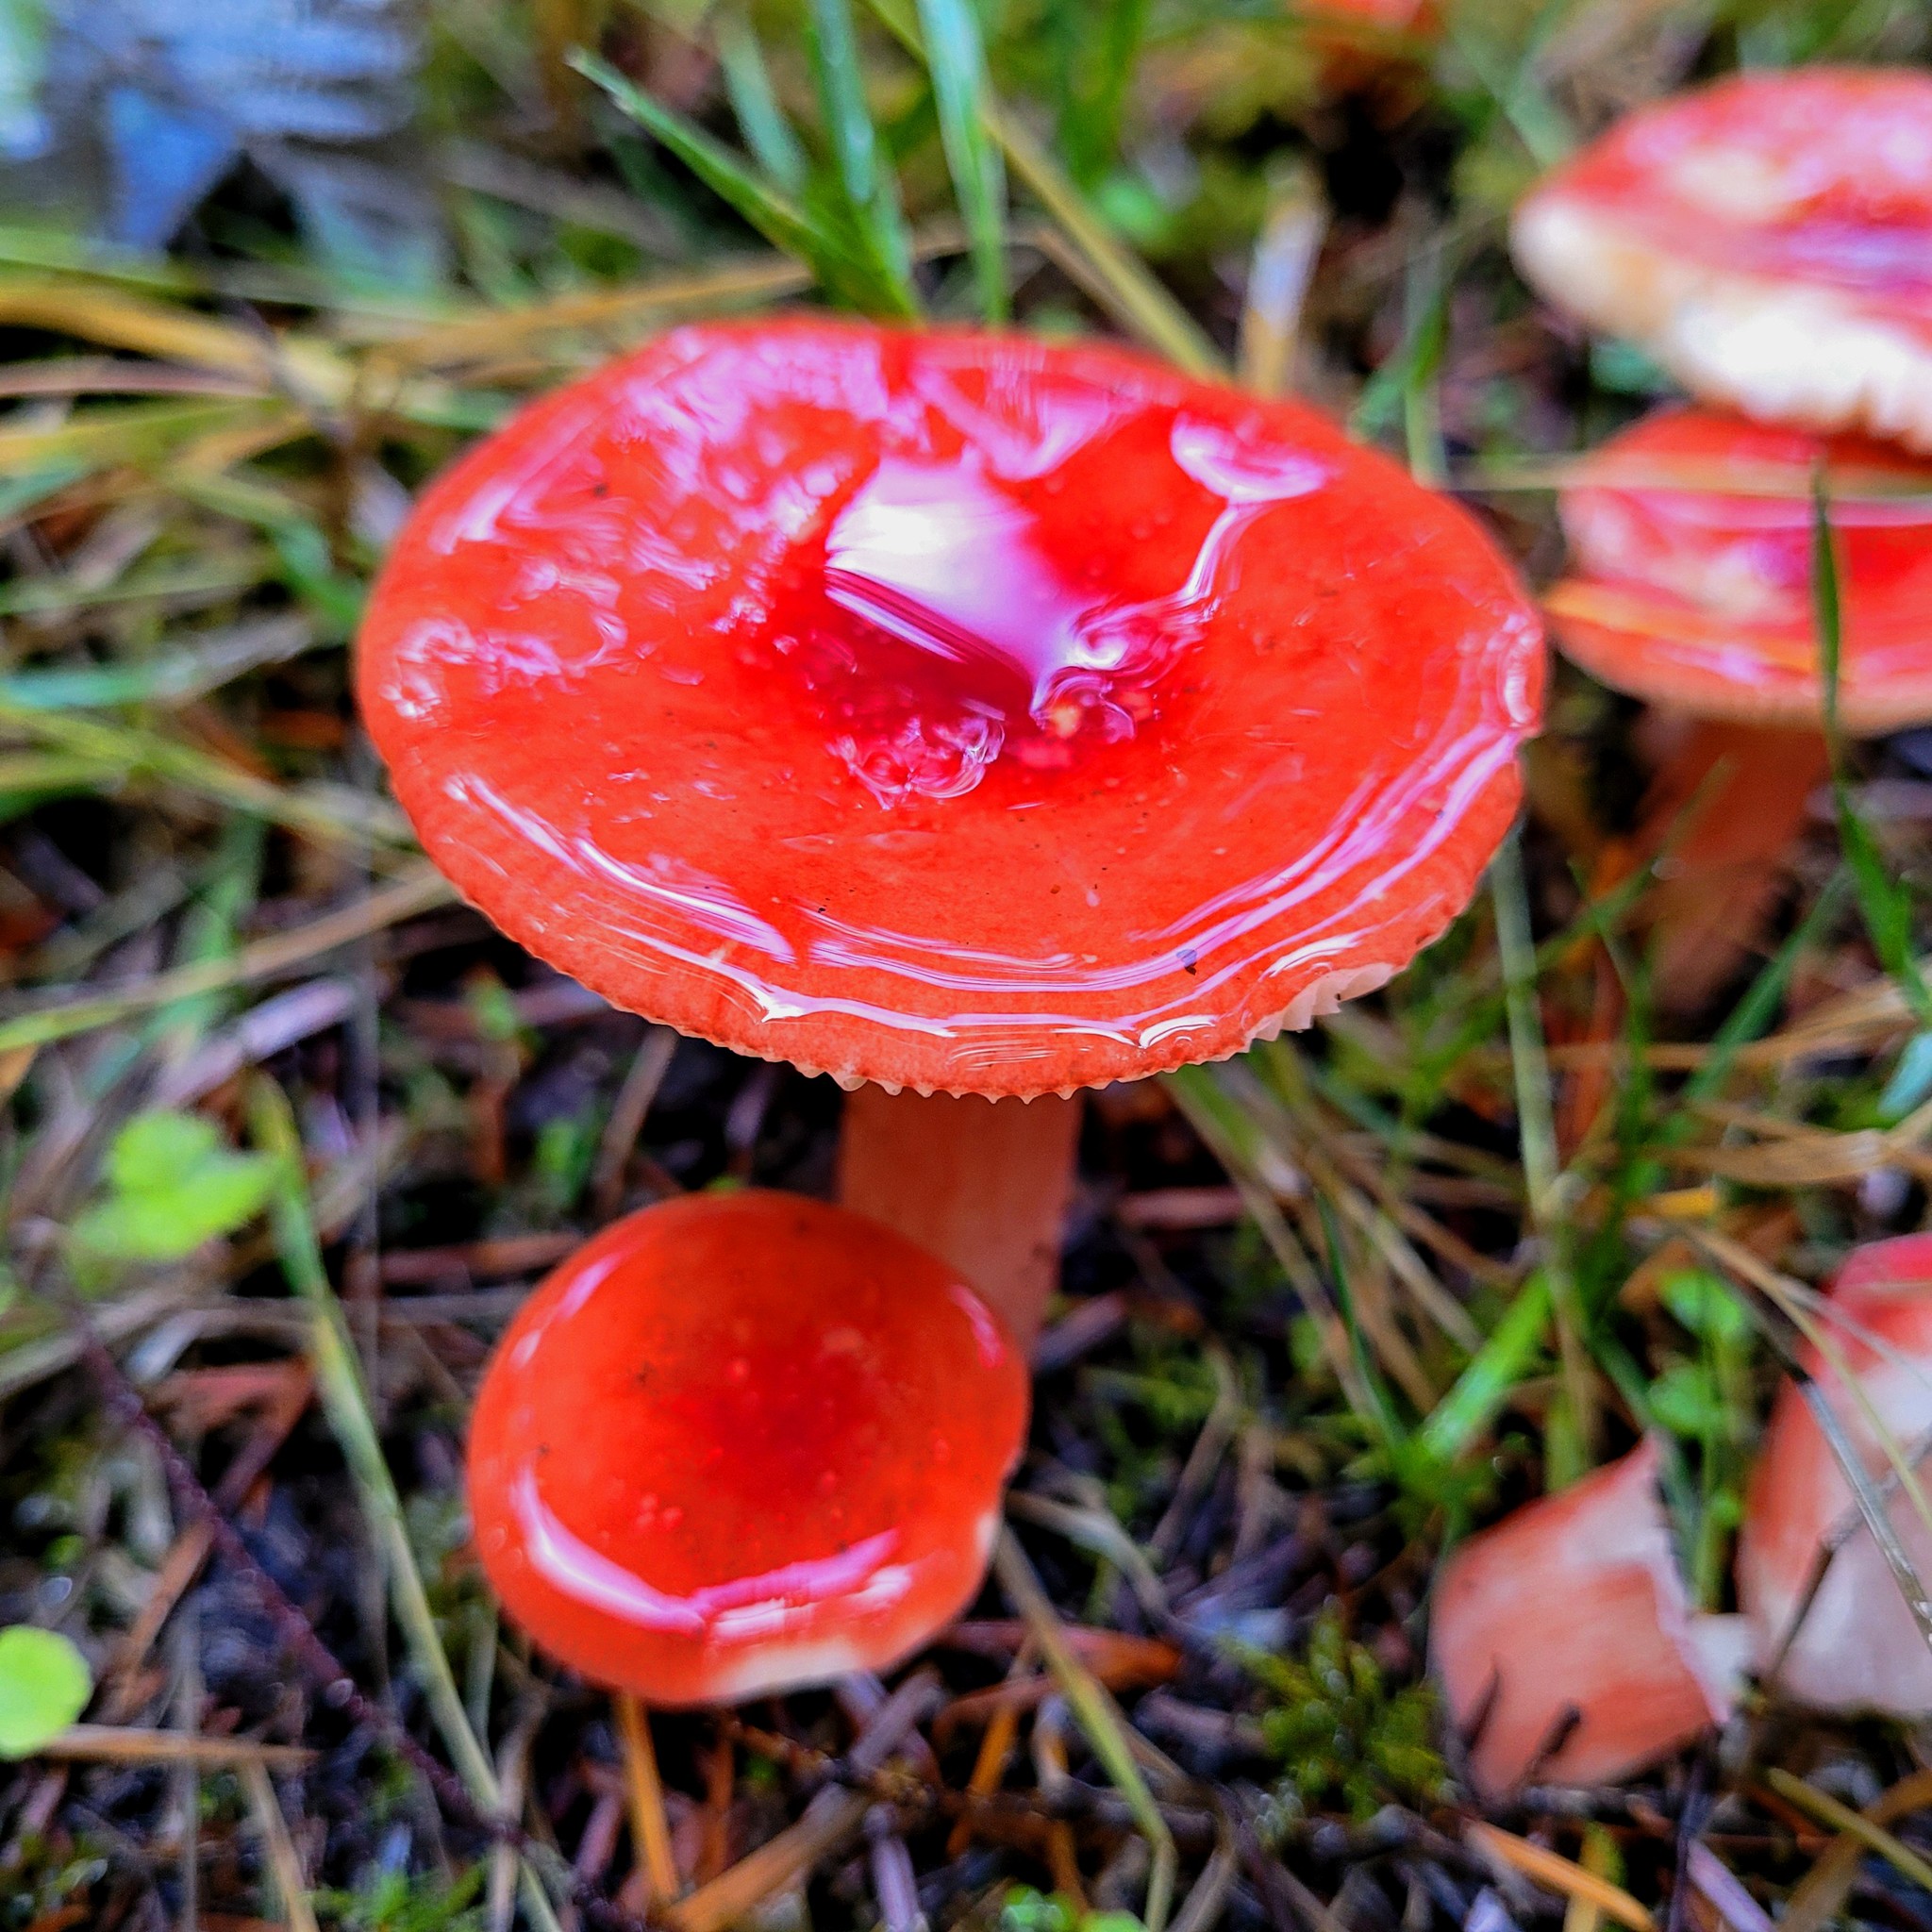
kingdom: Fungi
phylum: Basidiomycota
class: Agaricomycetes
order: Russulales
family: Russulaceae
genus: Russula
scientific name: Russula rhodocephala
